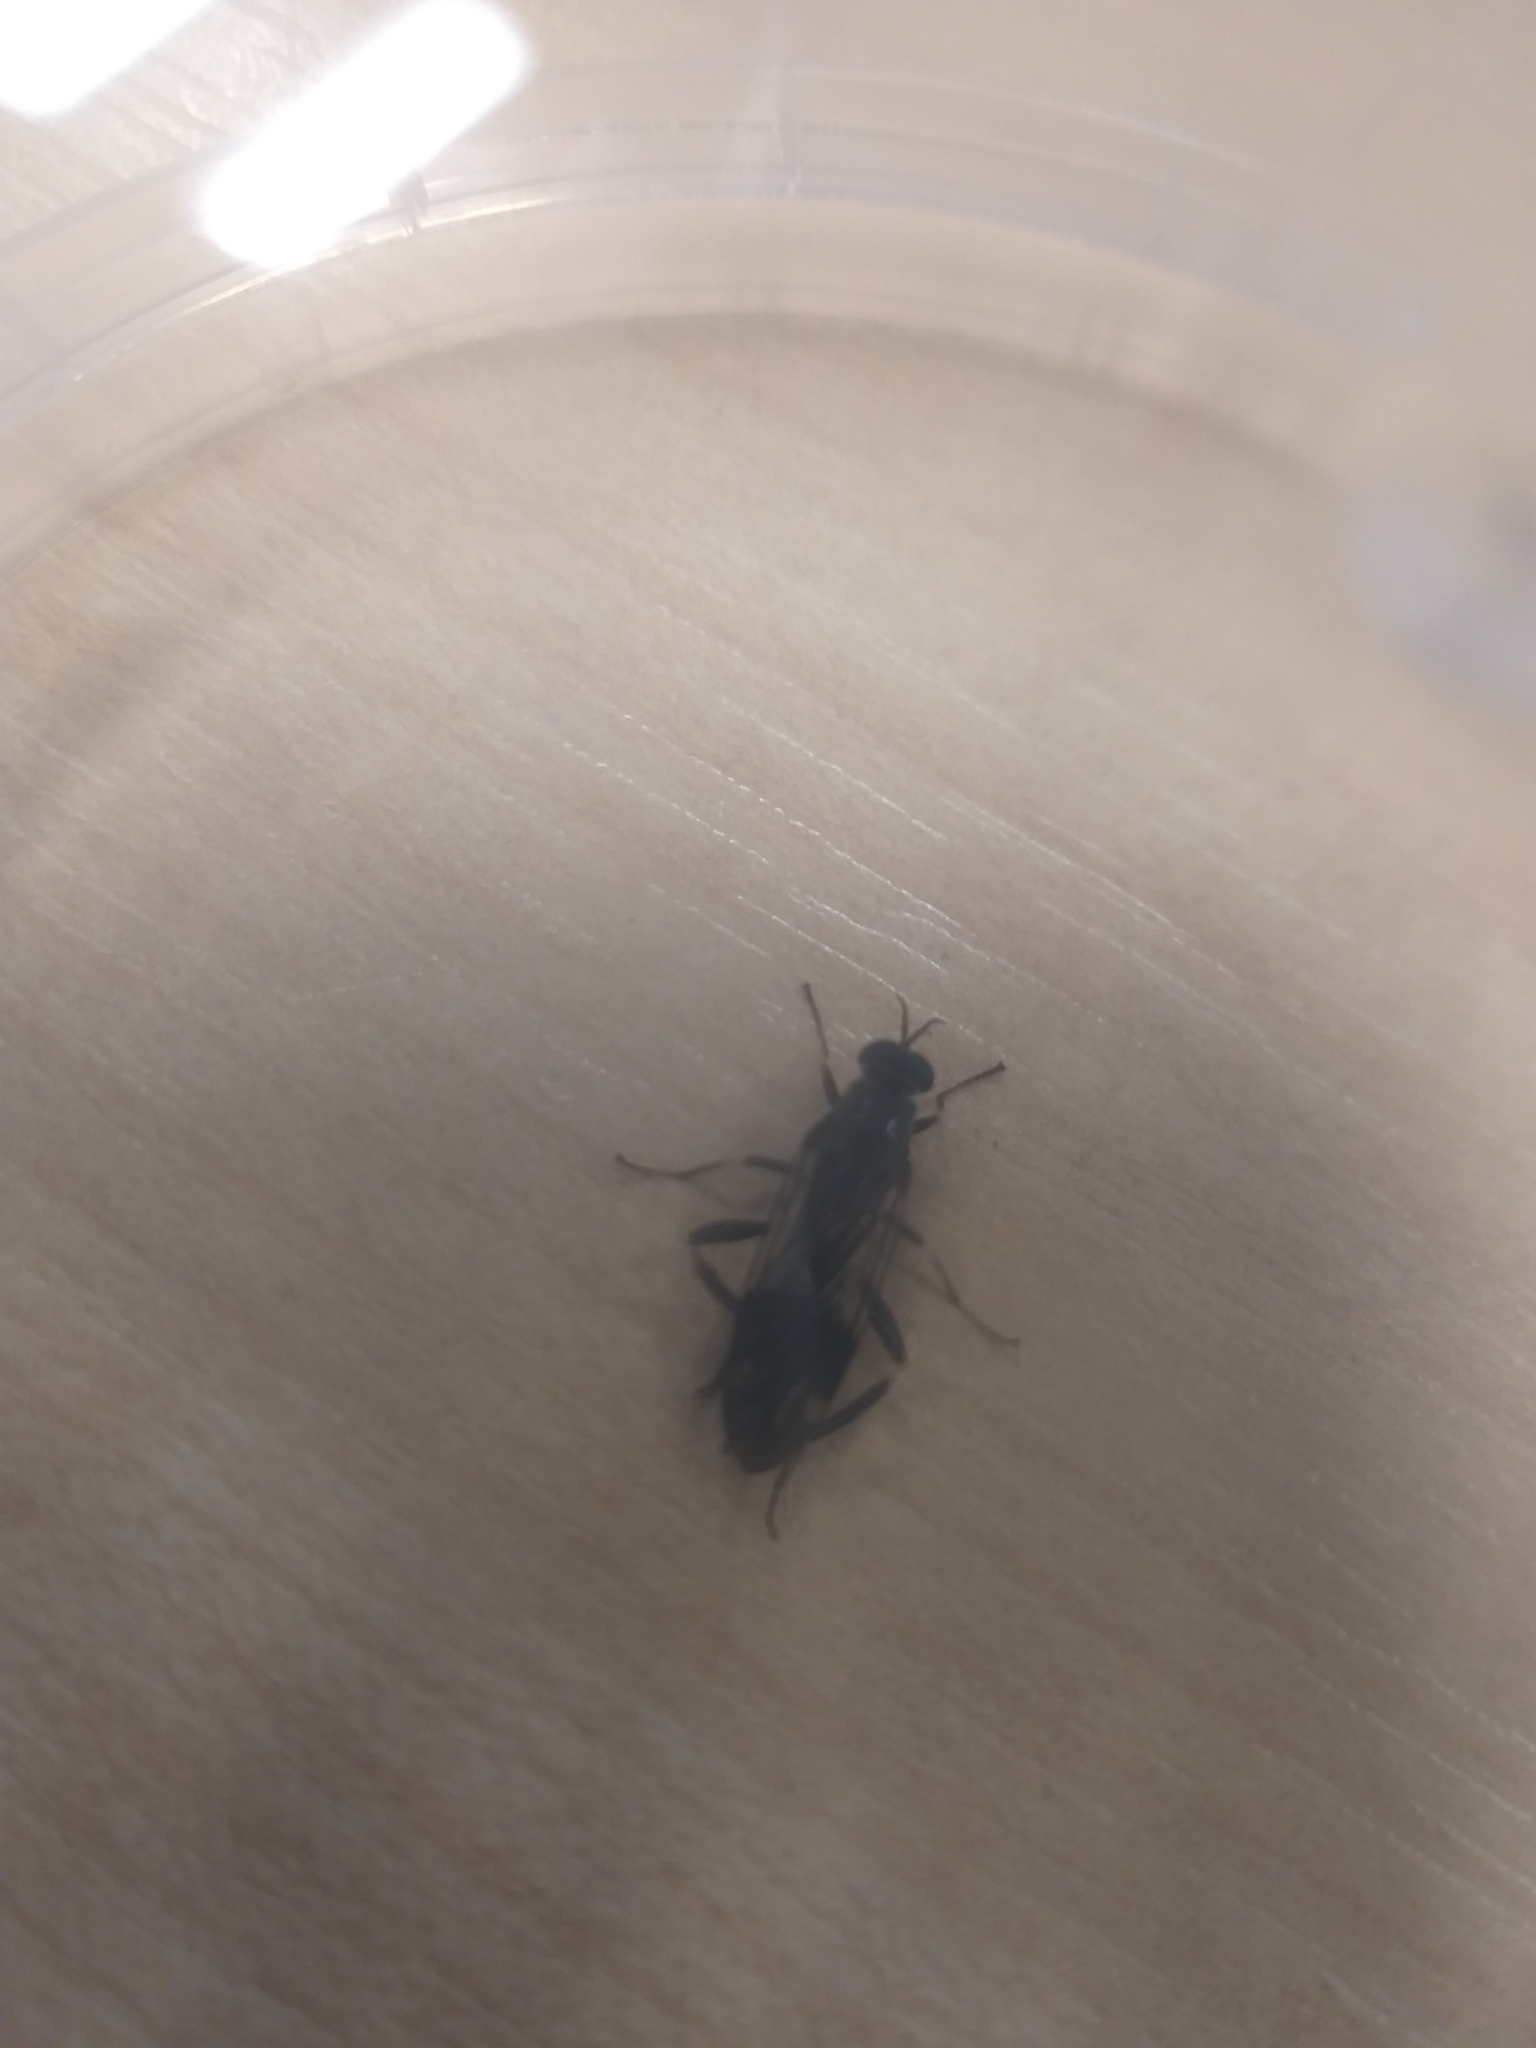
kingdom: Animalia
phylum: Arthropoda
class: Insecta
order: Diptera
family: Stratiomyidae
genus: Exaireta
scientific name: Exaireta spinigera
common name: Blue soldier fly
